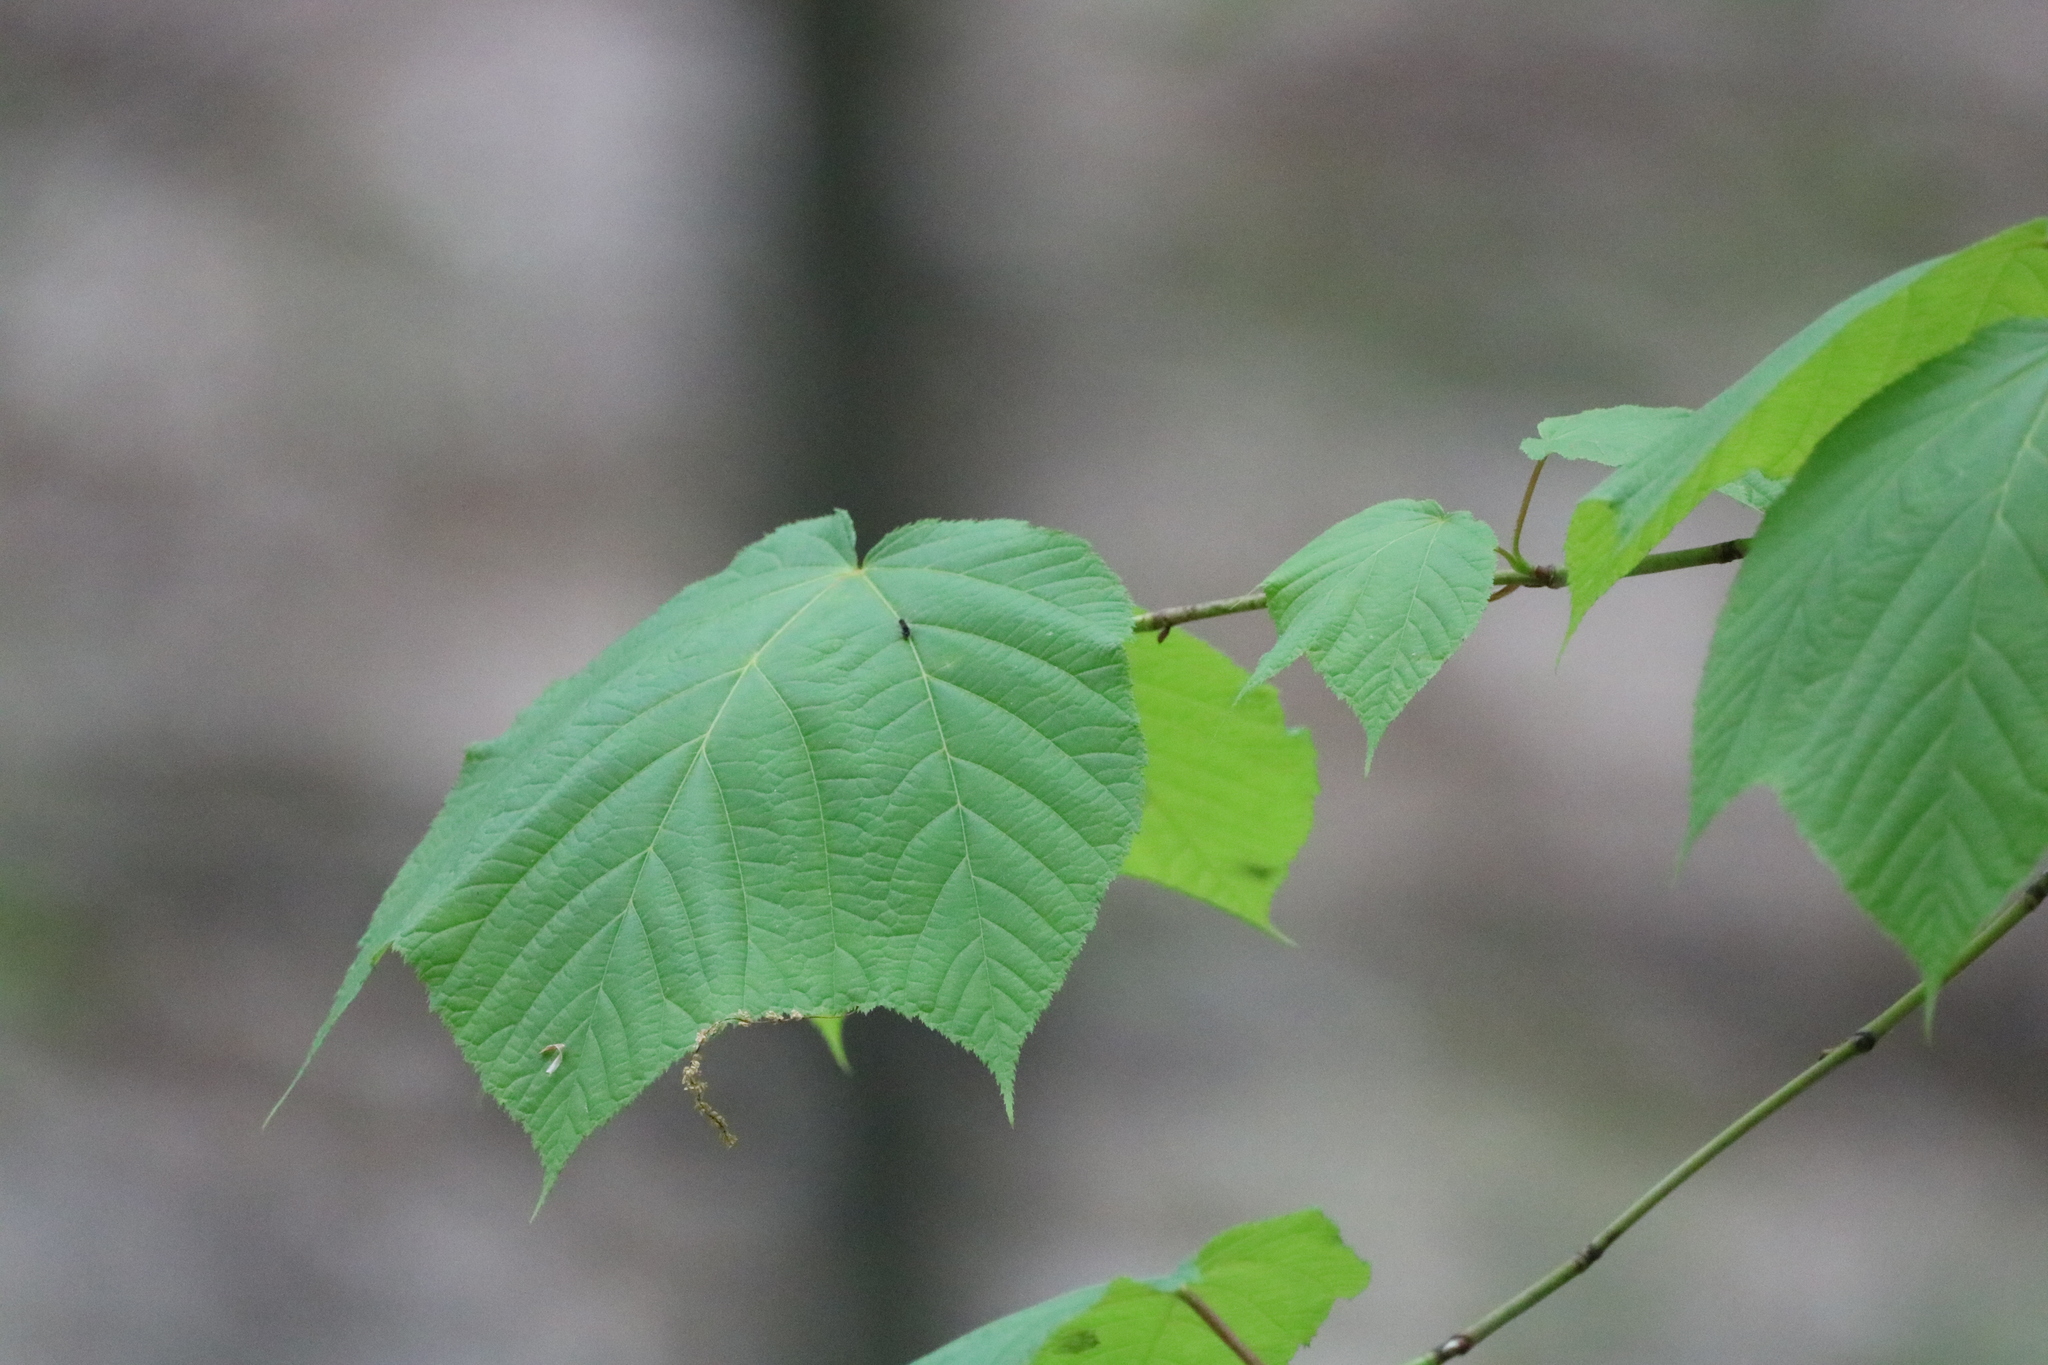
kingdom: Plantae
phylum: Tracheophyta
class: Magnoliopsida
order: Sapindales
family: Sapindaceae
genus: Acer
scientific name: Acer pensylvanicum
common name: Moosewood
